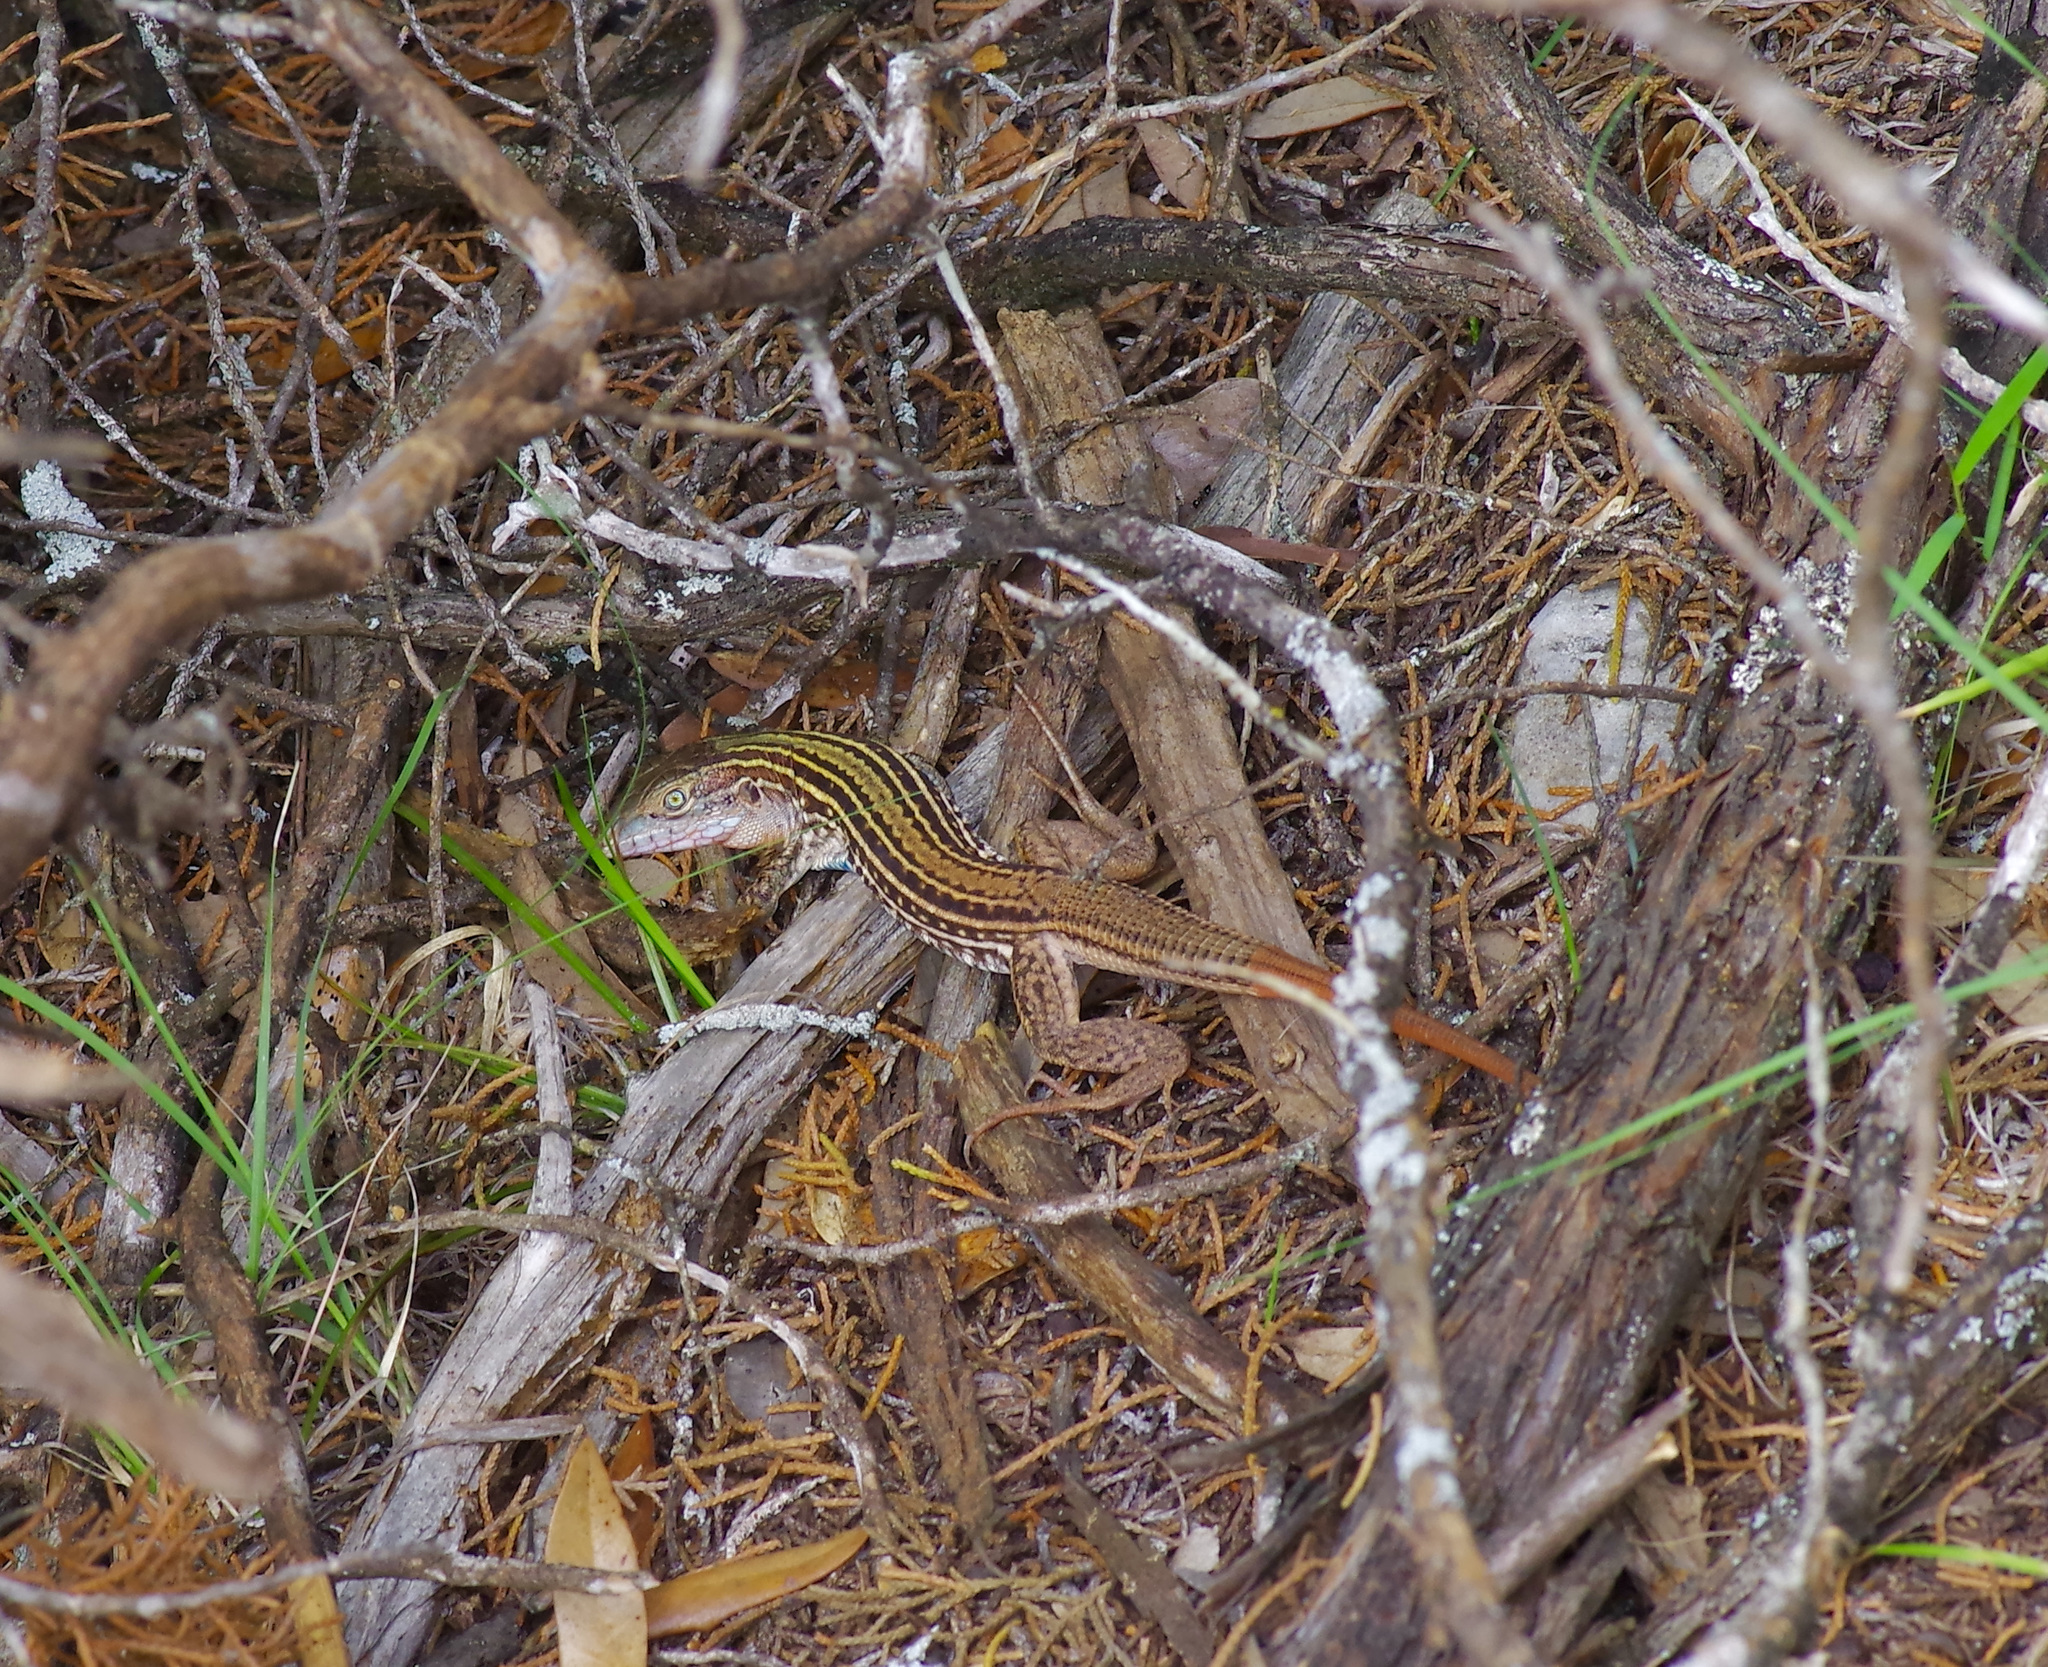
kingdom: Animalia
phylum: Chordata
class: Squamata
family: Teiidae
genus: Aspidoscelis
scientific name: Aspidoscelis gularis
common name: Eastern spotted whiptail
